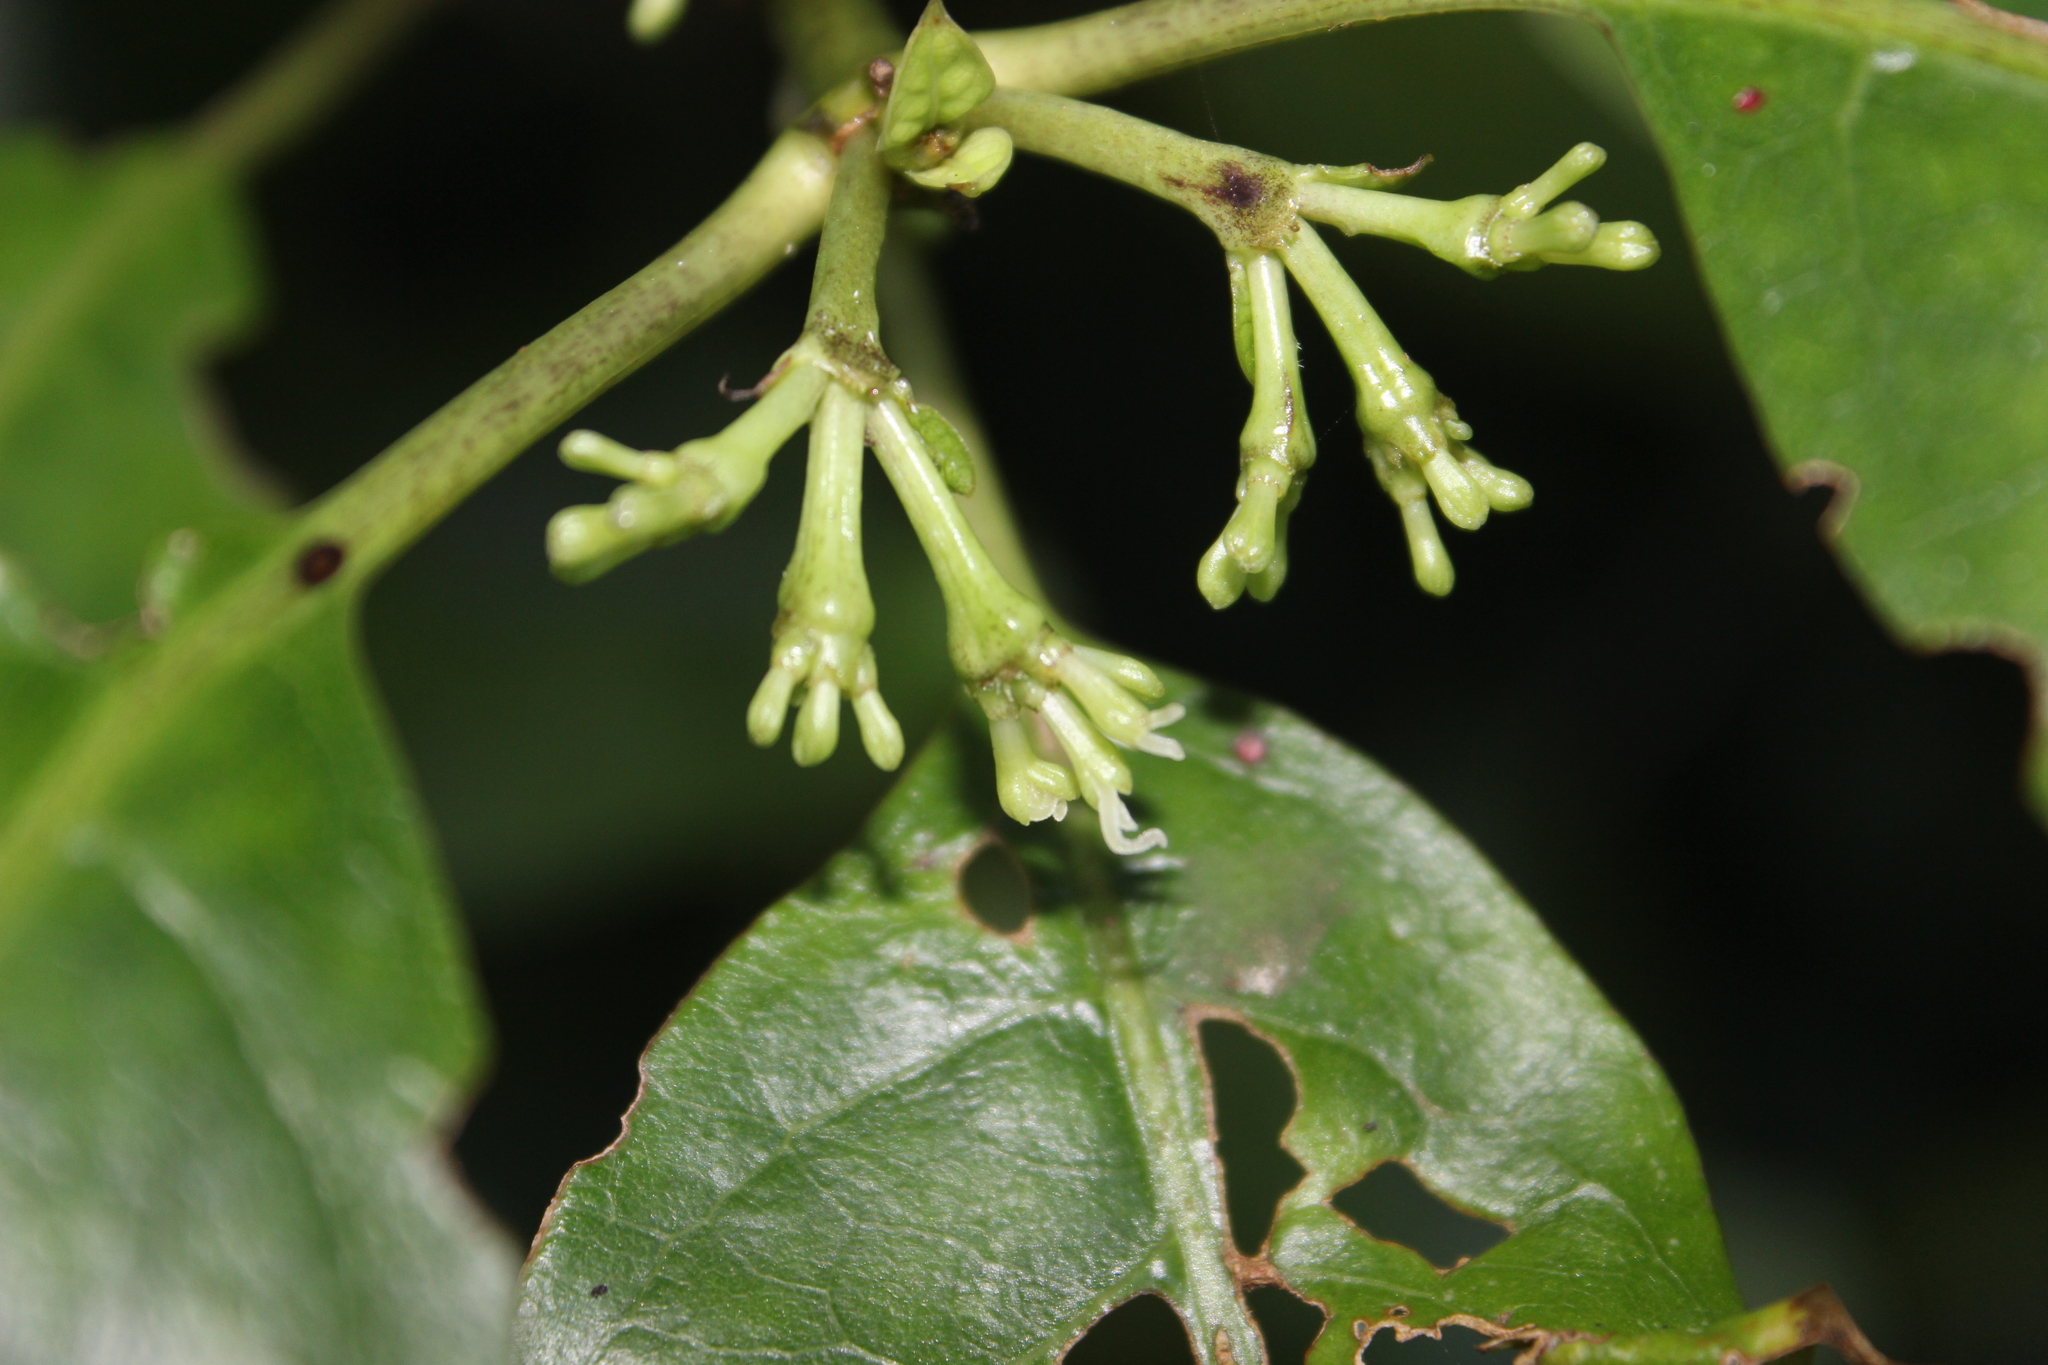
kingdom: Plantae
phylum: Tracheophyta
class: Magnoliopsida
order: Gentianales
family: Rubiaceae
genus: Coprosma
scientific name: Coprosma autumnalis
